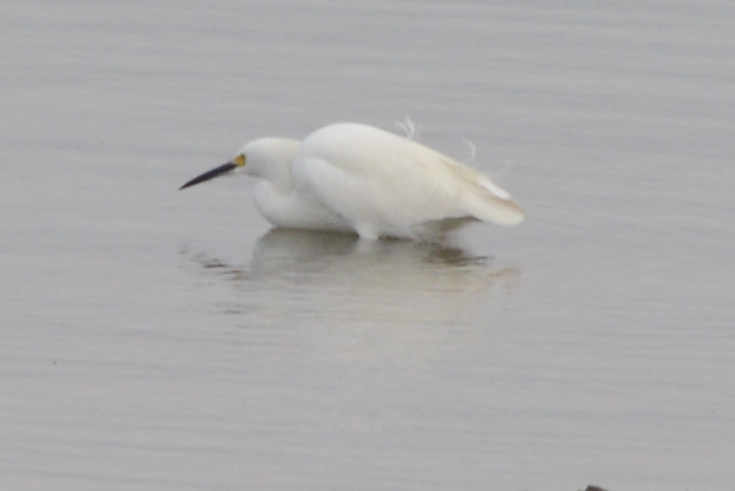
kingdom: Animalia
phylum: Chordata
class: Aves
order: Pelecaniformes
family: Ardeidae
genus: Egretta
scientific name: Egretta thula
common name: Snowy egret
